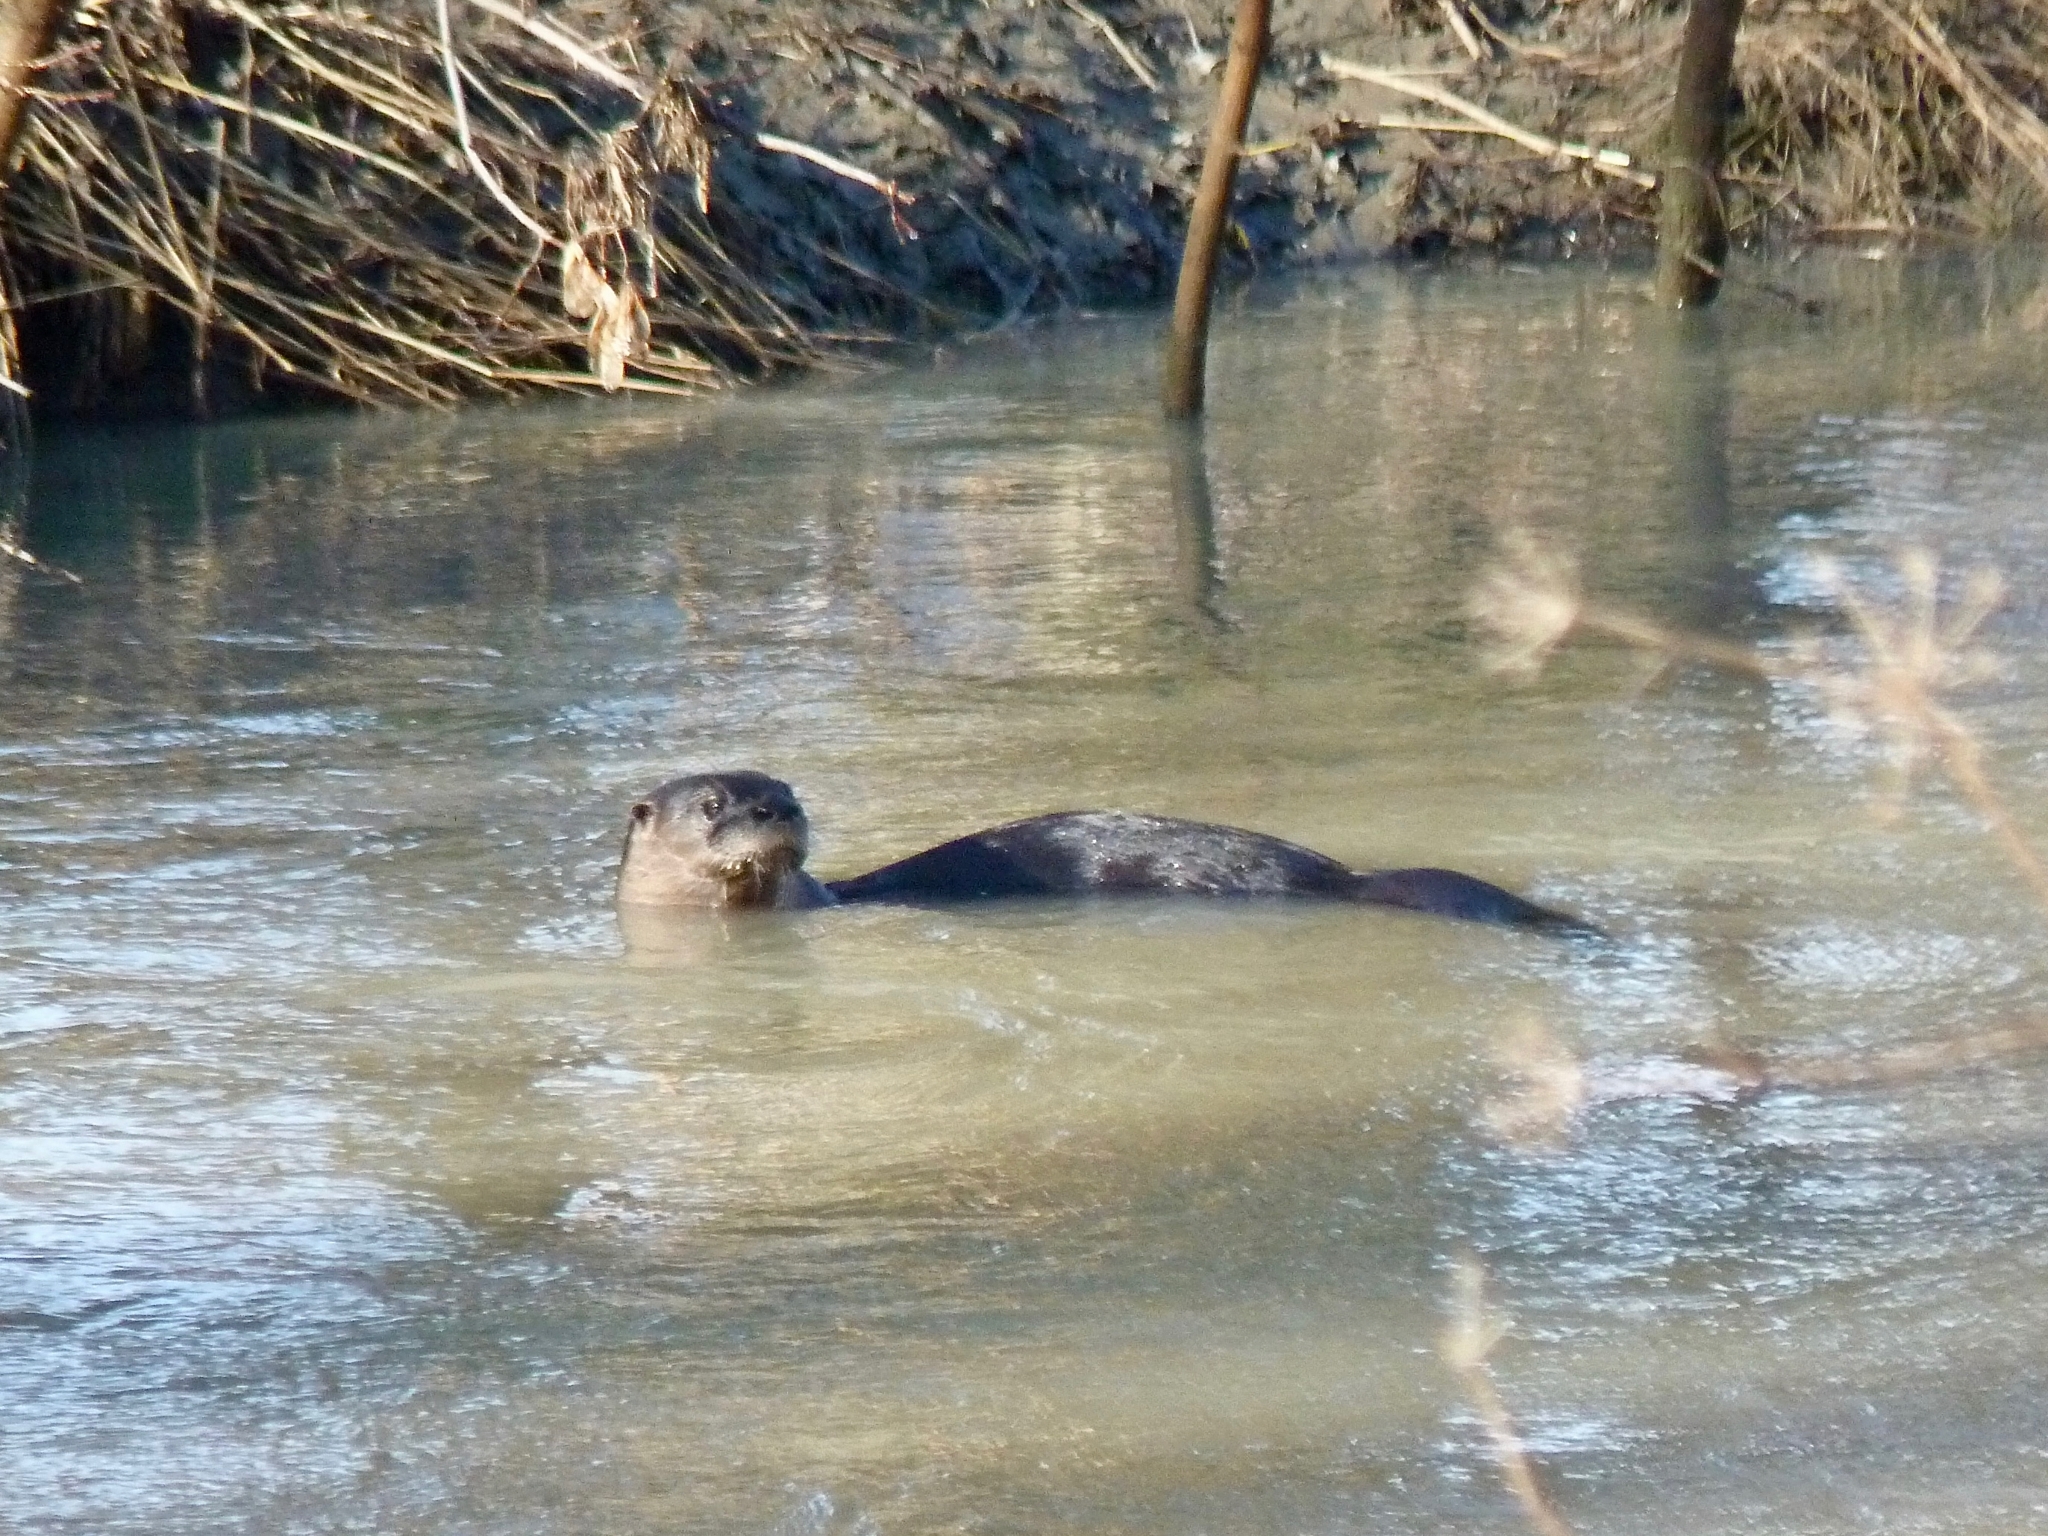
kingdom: Animalia
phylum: Chordata
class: Mammalia
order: Carnivora
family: Mustelidae
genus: Lontra
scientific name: Lontra canadensis
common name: North american river otter
